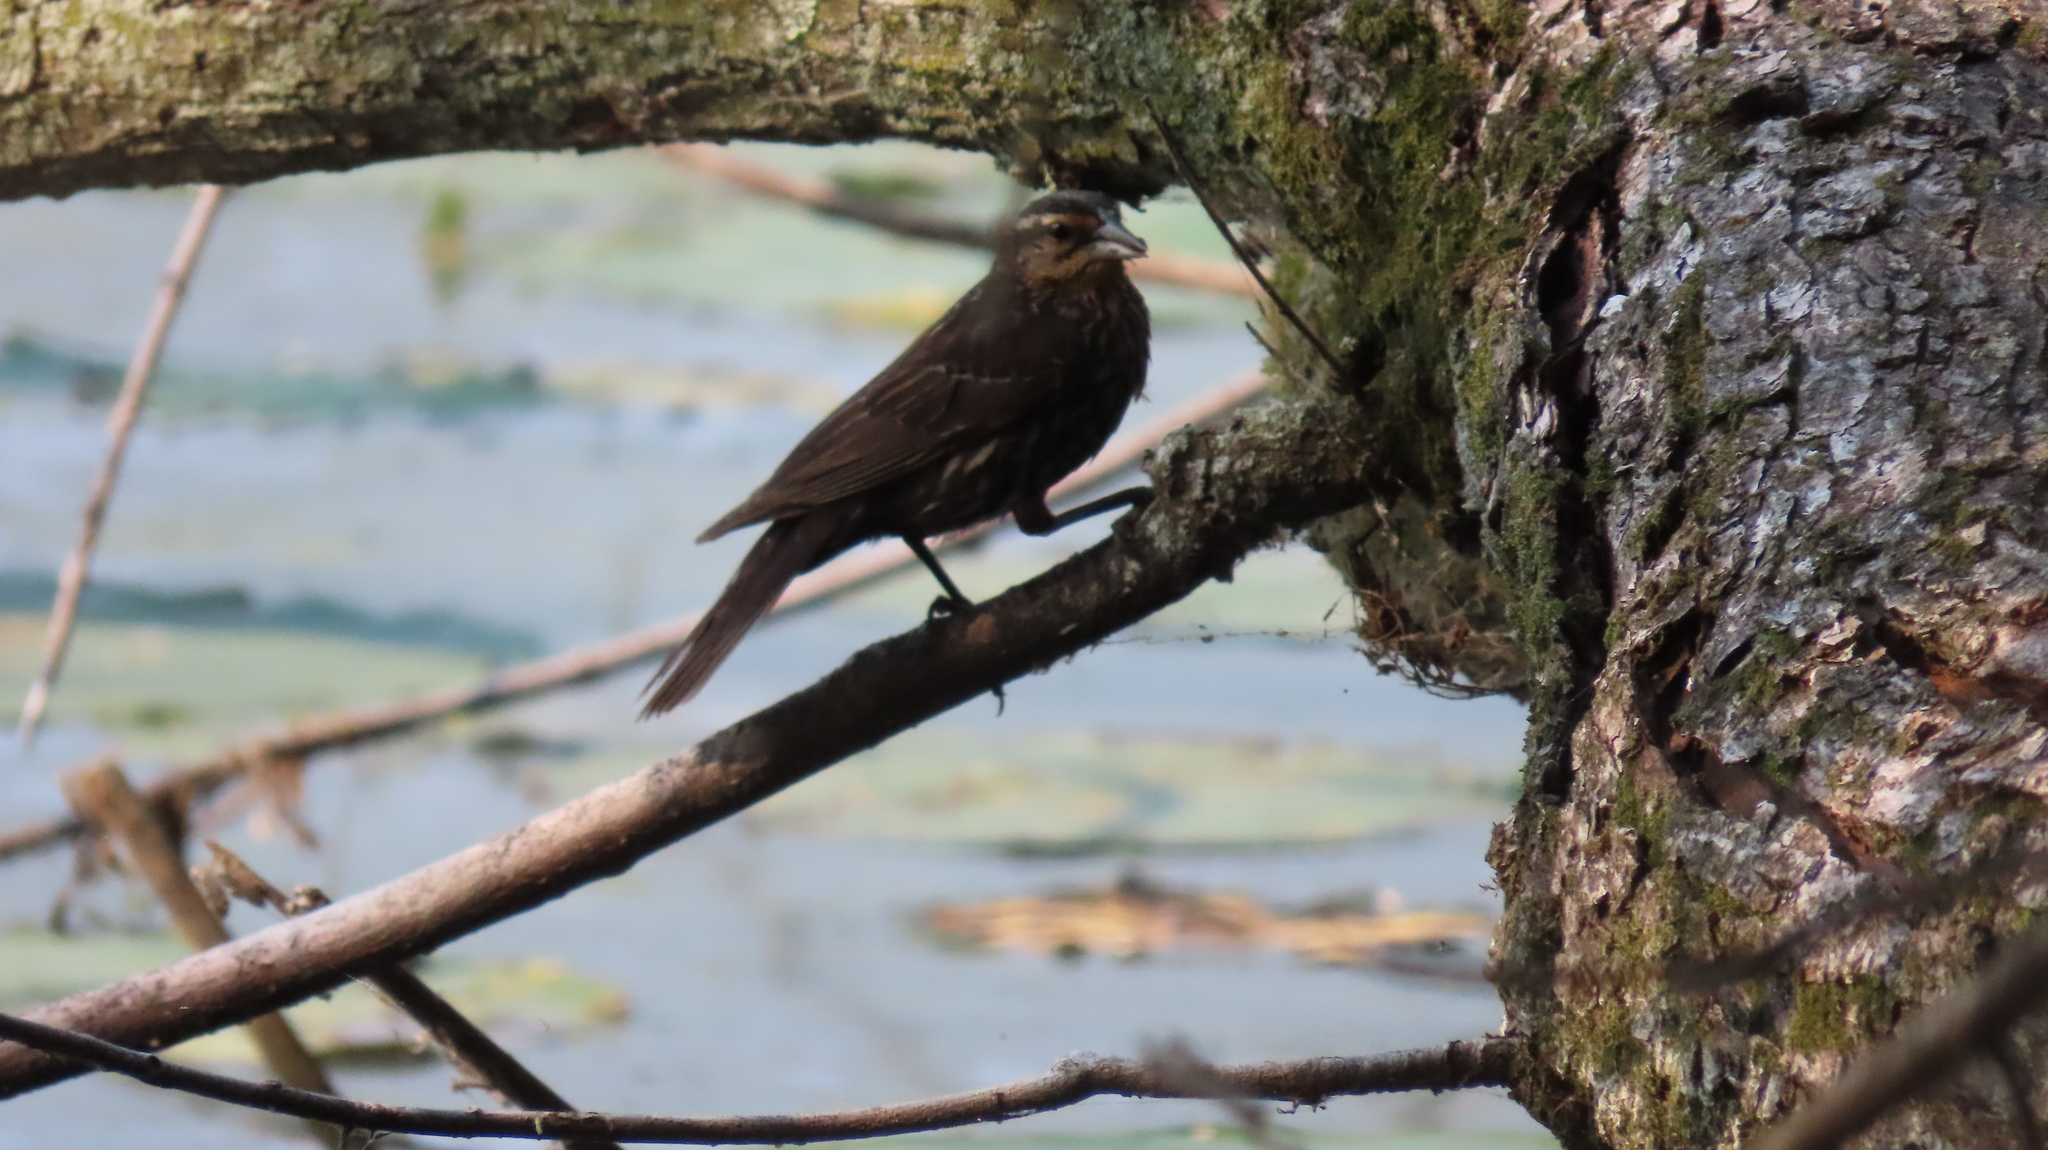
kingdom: Animalia
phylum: Chordata
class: Aves
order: Passeriformes
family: Icteridae
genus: Agelaius
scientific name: Agelaius phoeniceus
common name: Red-winged blackbird
